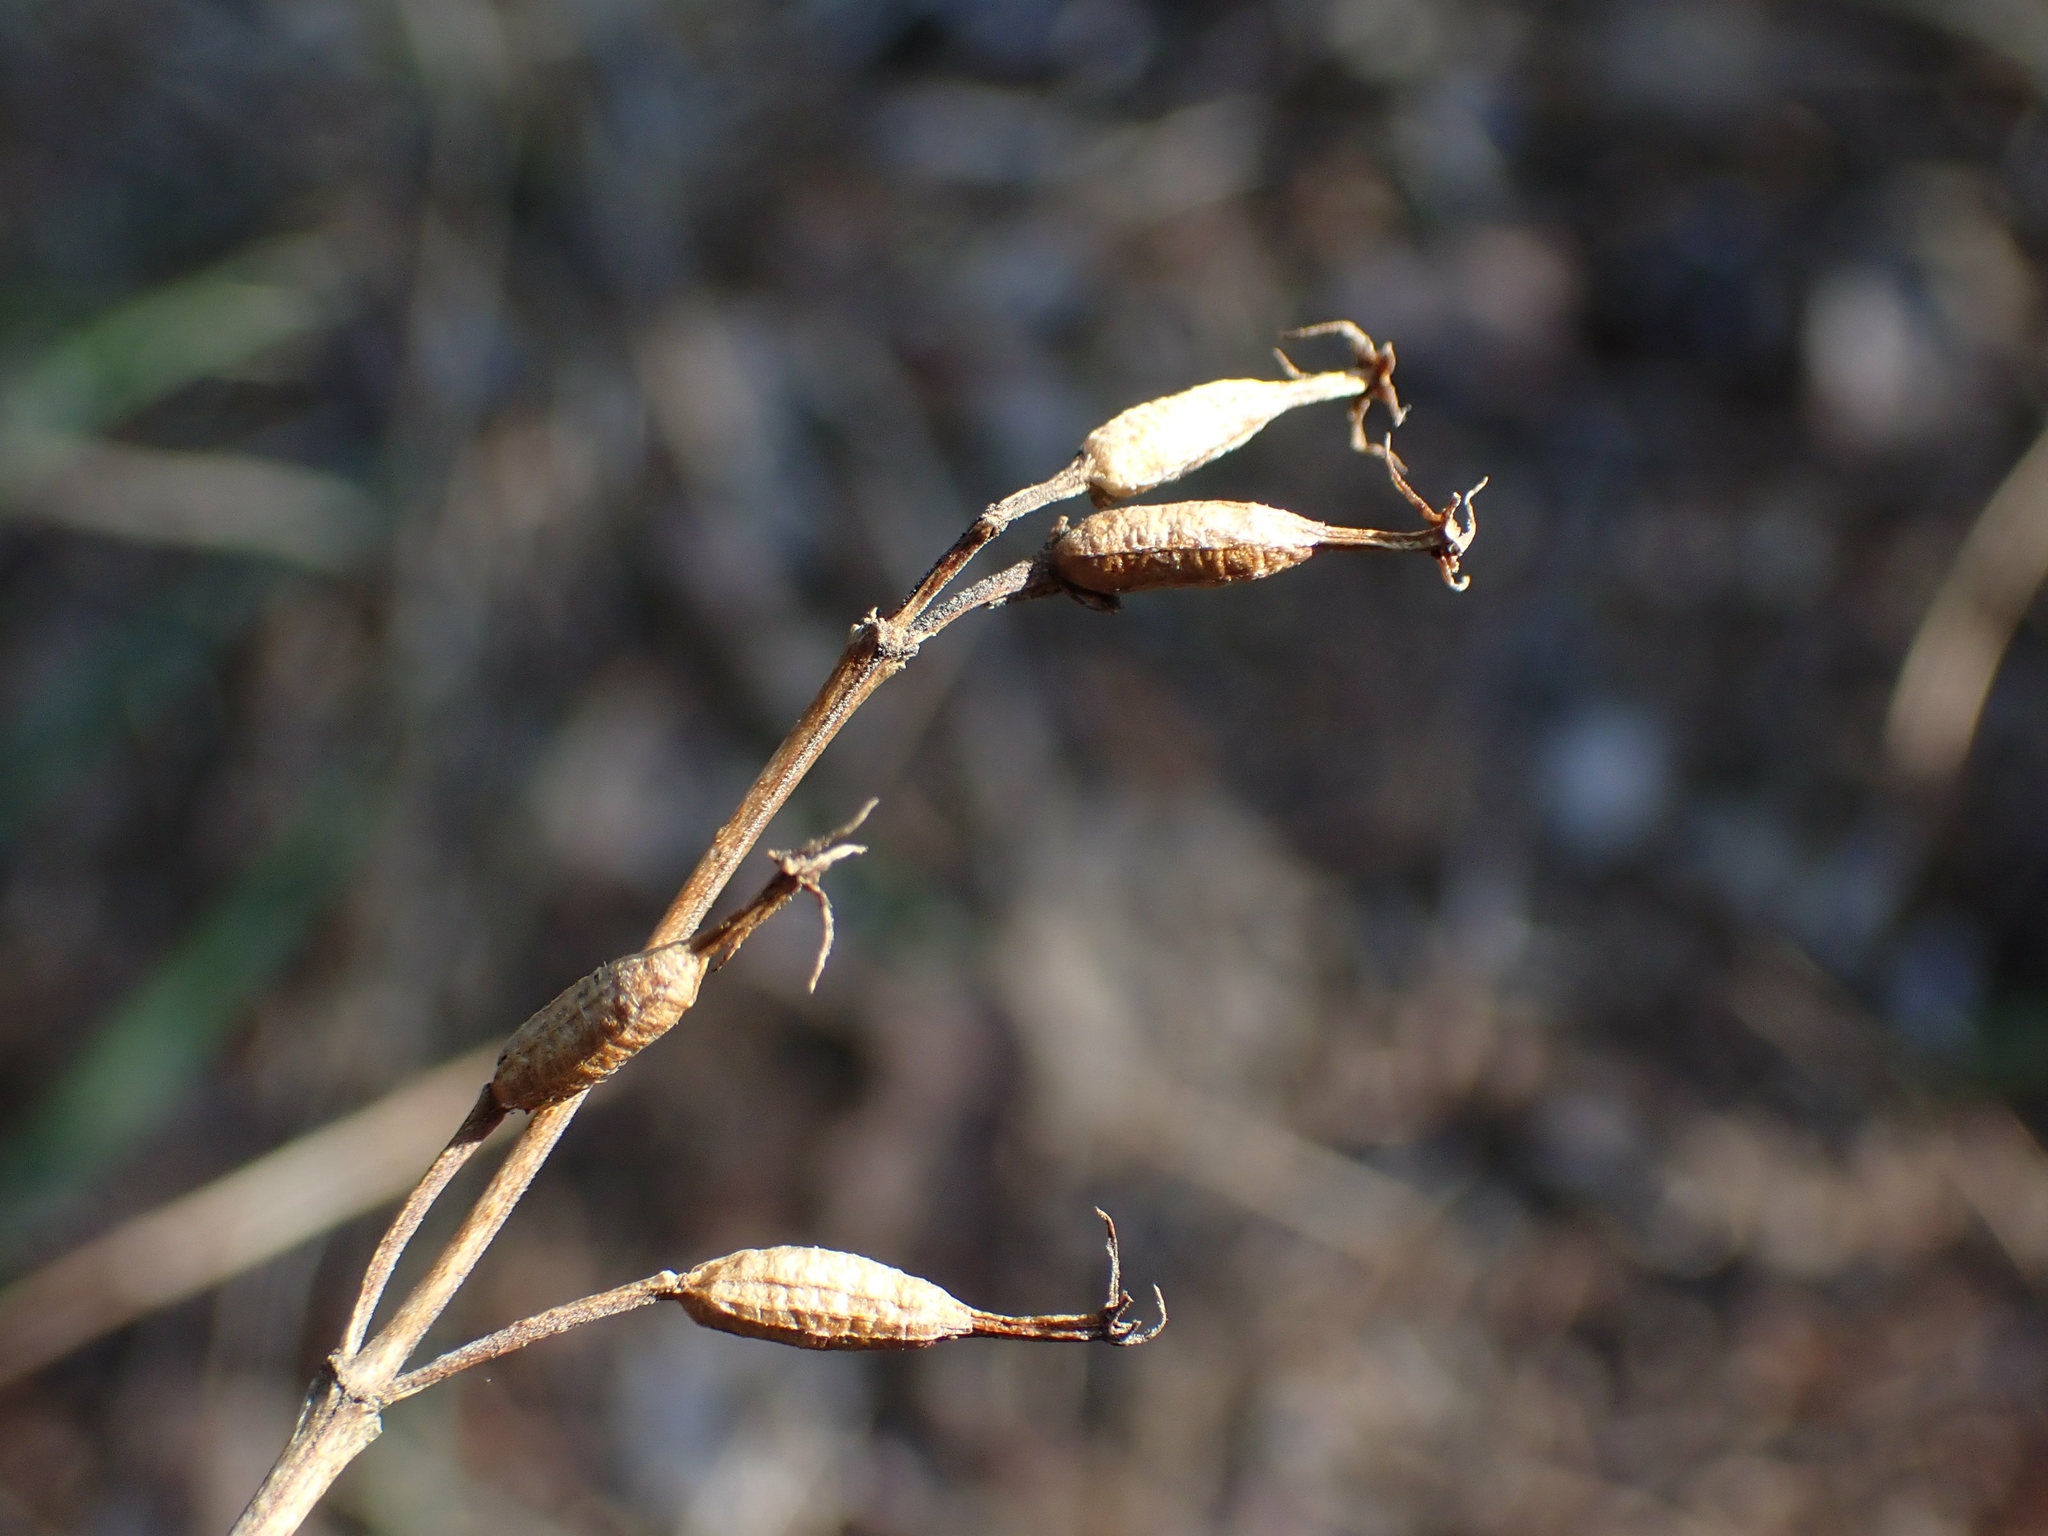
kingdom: Plantae
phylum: Tracheophyta
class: Magnoliopsida
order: Dipsacales
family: Caprifoliaceae
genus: Diervilla
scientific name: Diervilla lonicera
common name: Bush-honeysuckle
